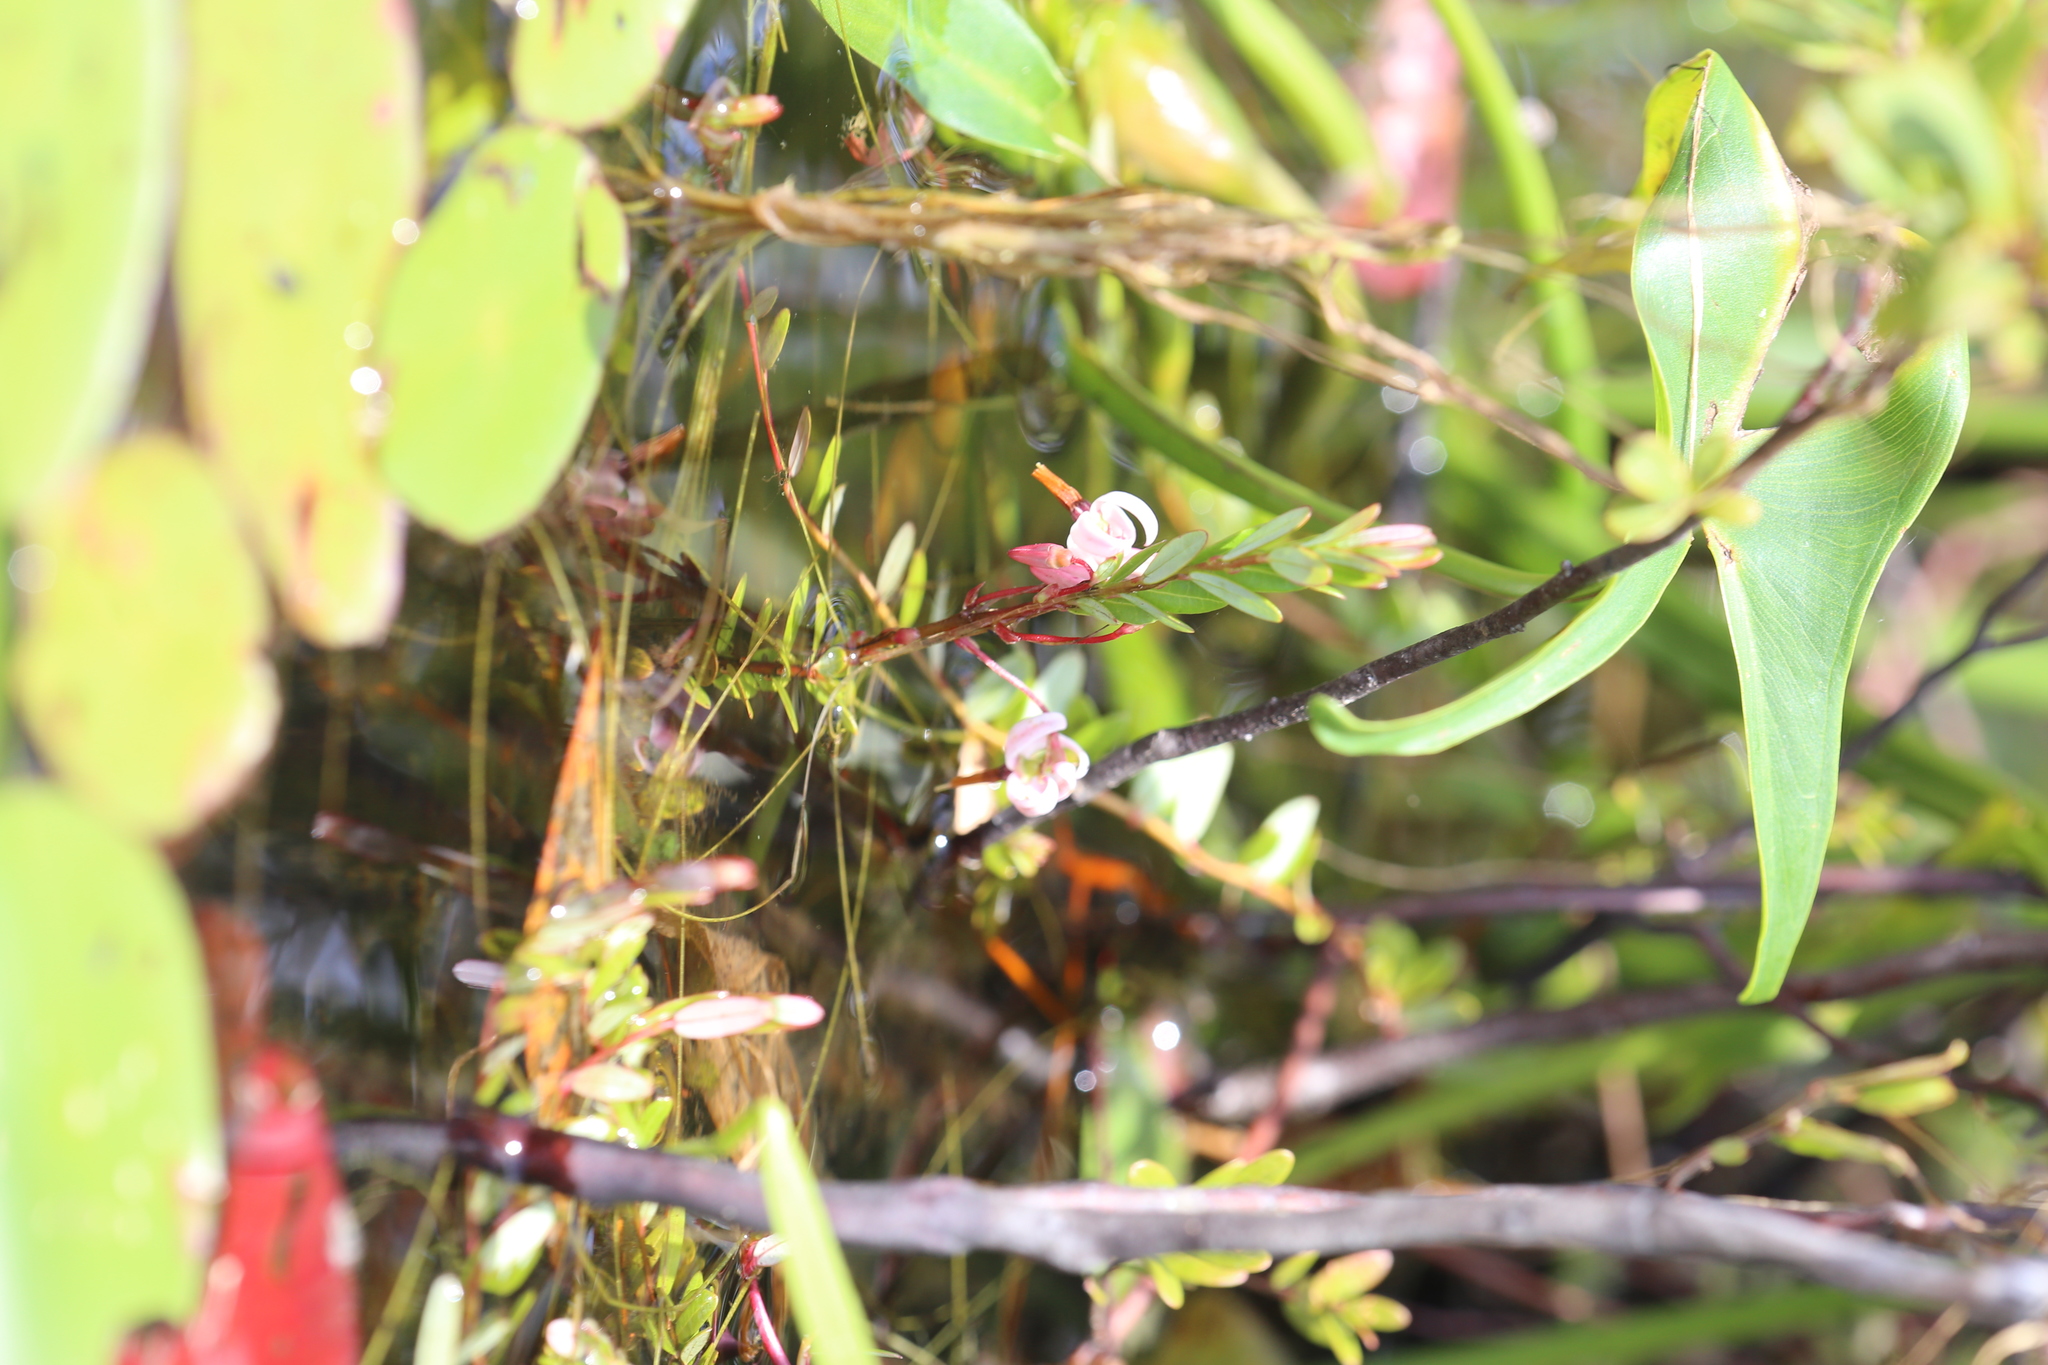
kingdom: Plantae
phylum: Tracheophyta
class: Magnoliopsida
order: Ericales
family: Ericaceae
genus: Vaccinium
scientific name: Vaccinium macrocarpon
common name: American cranberry
